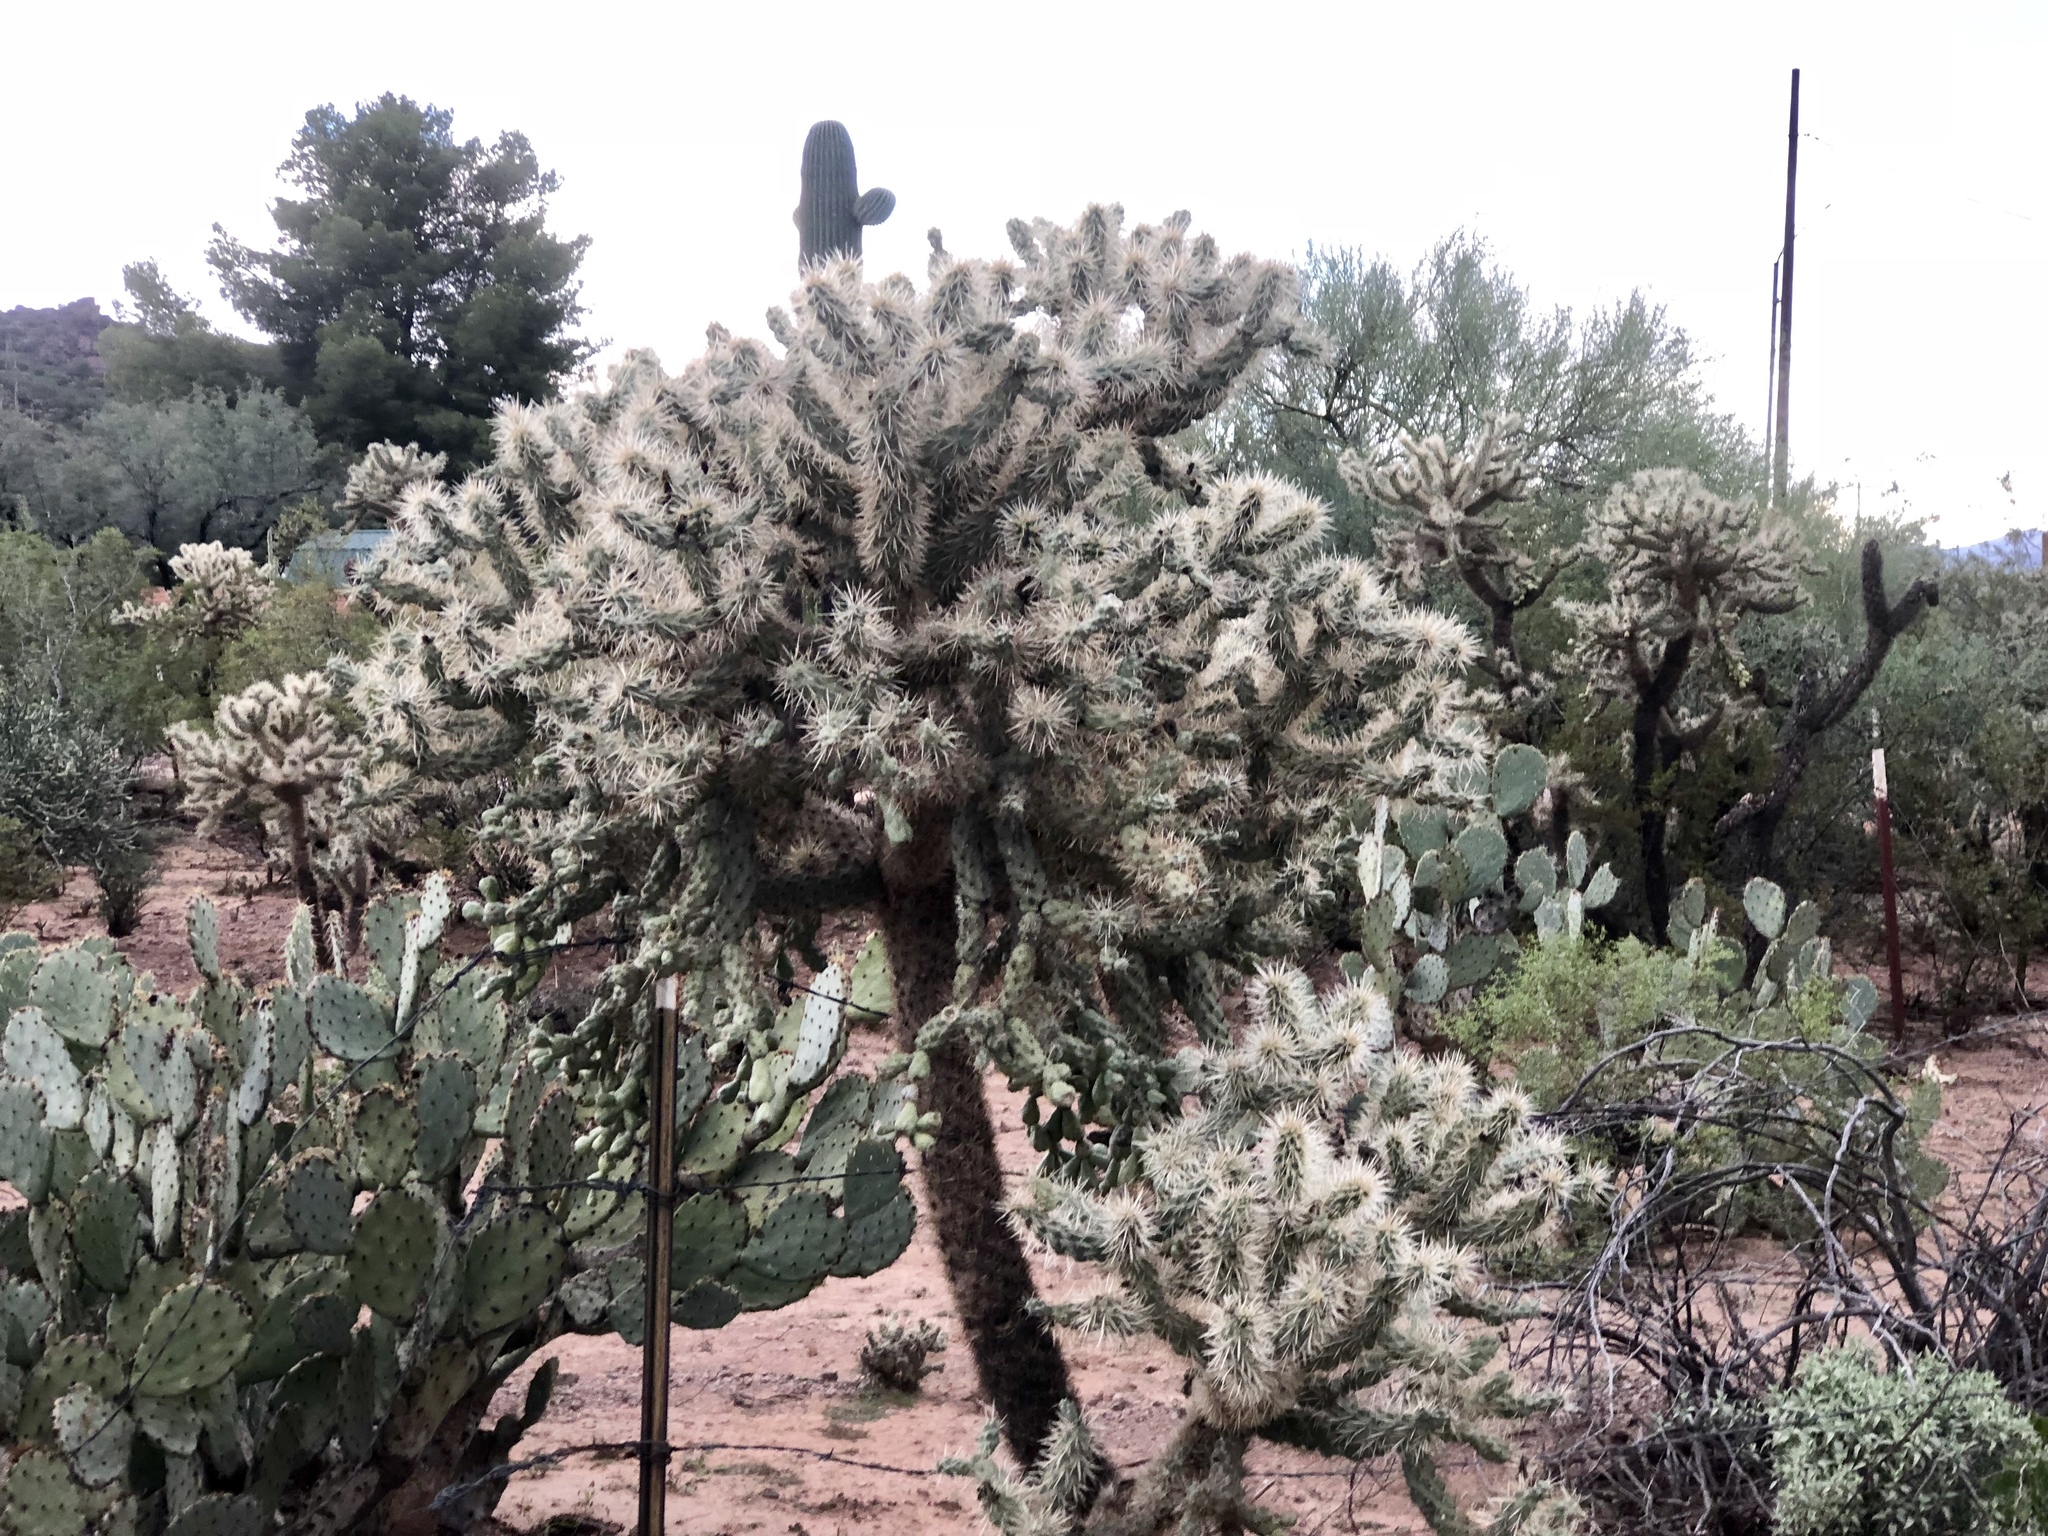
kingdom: Plantae
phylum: Tracheophyta
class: Magnoliopsida
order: Caryophyllales
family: Cactaceae
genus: Cylindropuntia
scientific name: Cylindropuntia fulgida
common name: Jumping cholla
